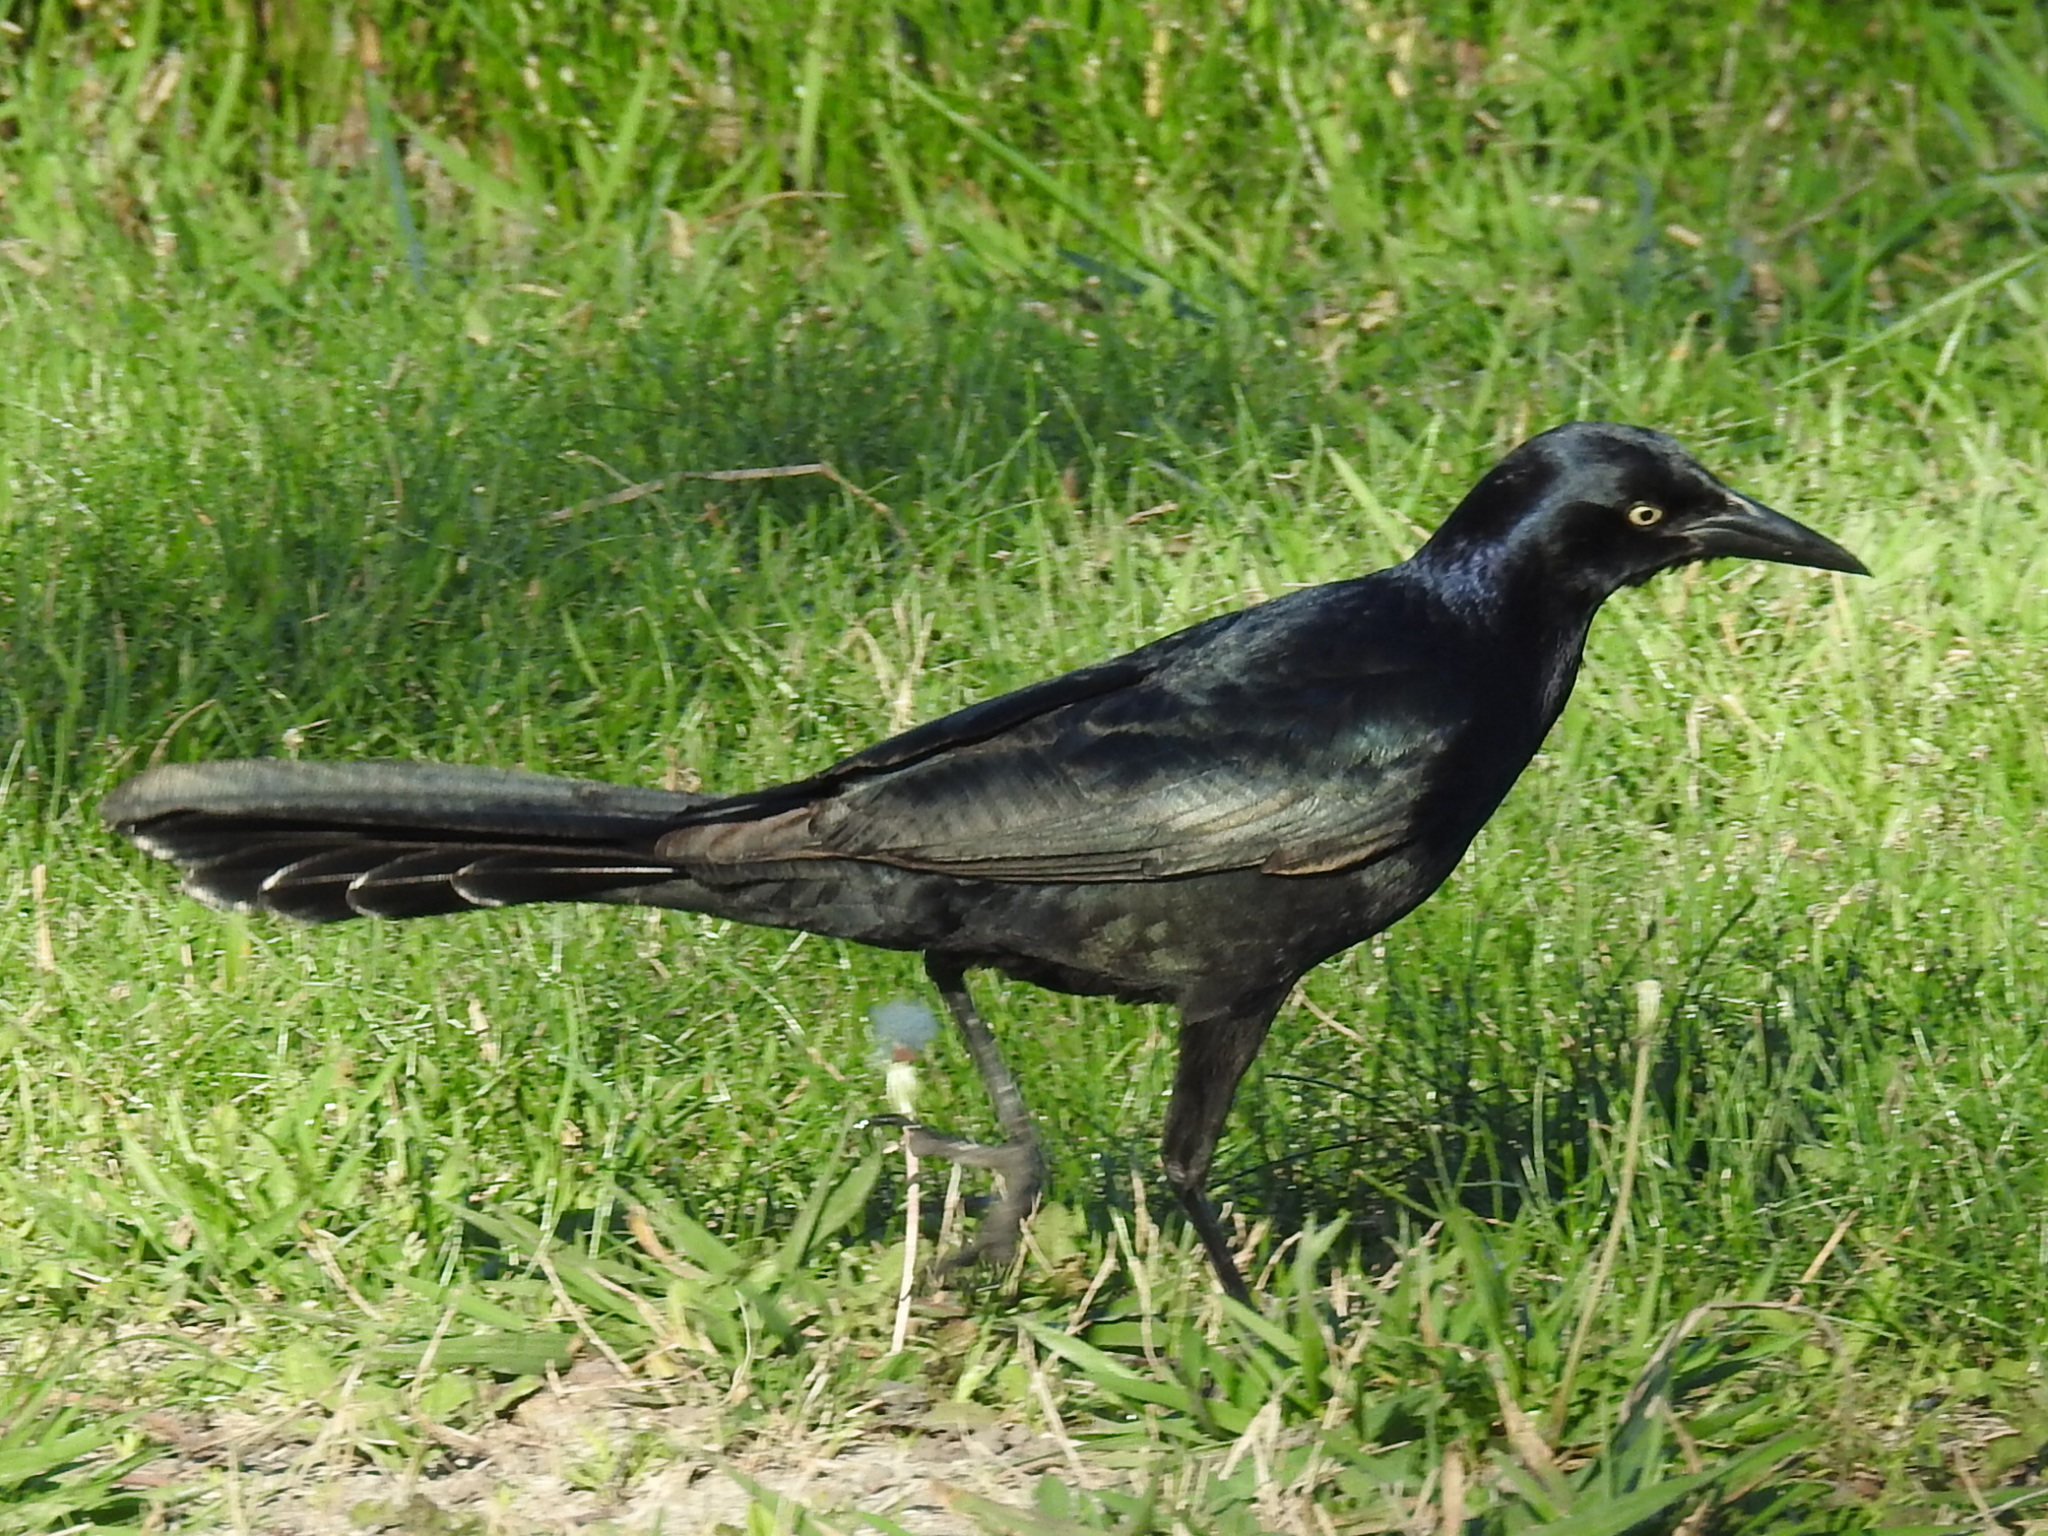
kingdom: Animalia
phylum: Chordata
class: Aves
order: Passeriformes
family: Icteridae
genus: Quiscalus
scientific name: Quiscalus mexicanus
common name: Great-tailed grackle
